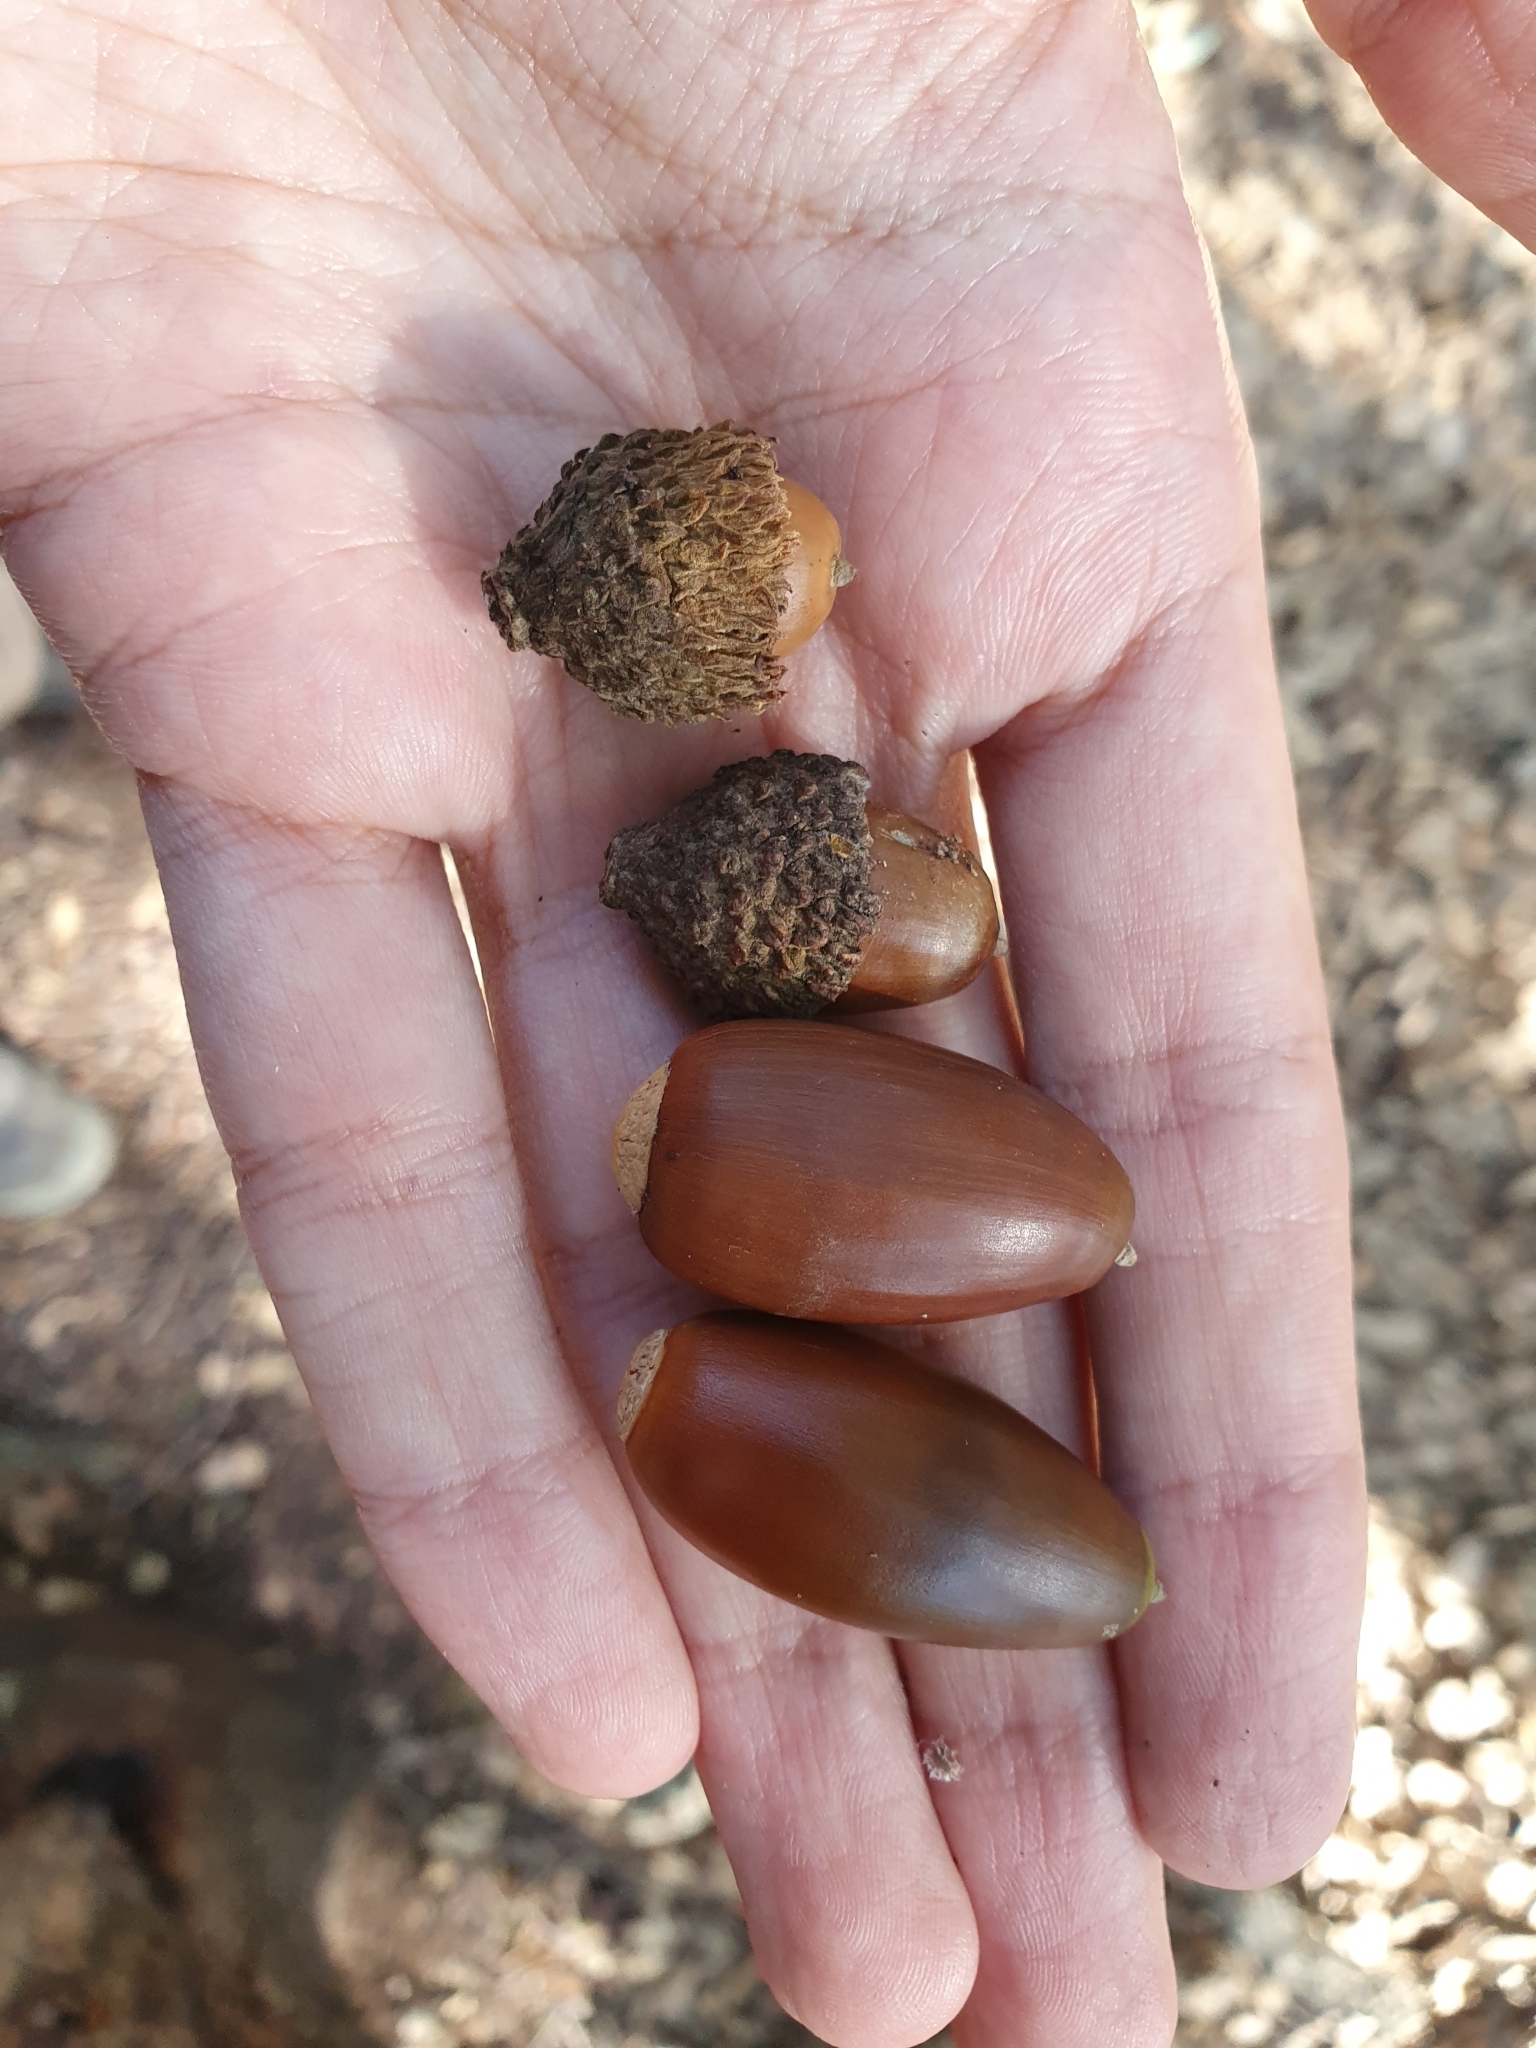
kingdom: Plantae
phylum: Tracheophyta
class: Magnoliopsida
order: Fagales
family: Fagaceae
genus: Quercus
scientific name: Quercus suber
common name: Cork oak
